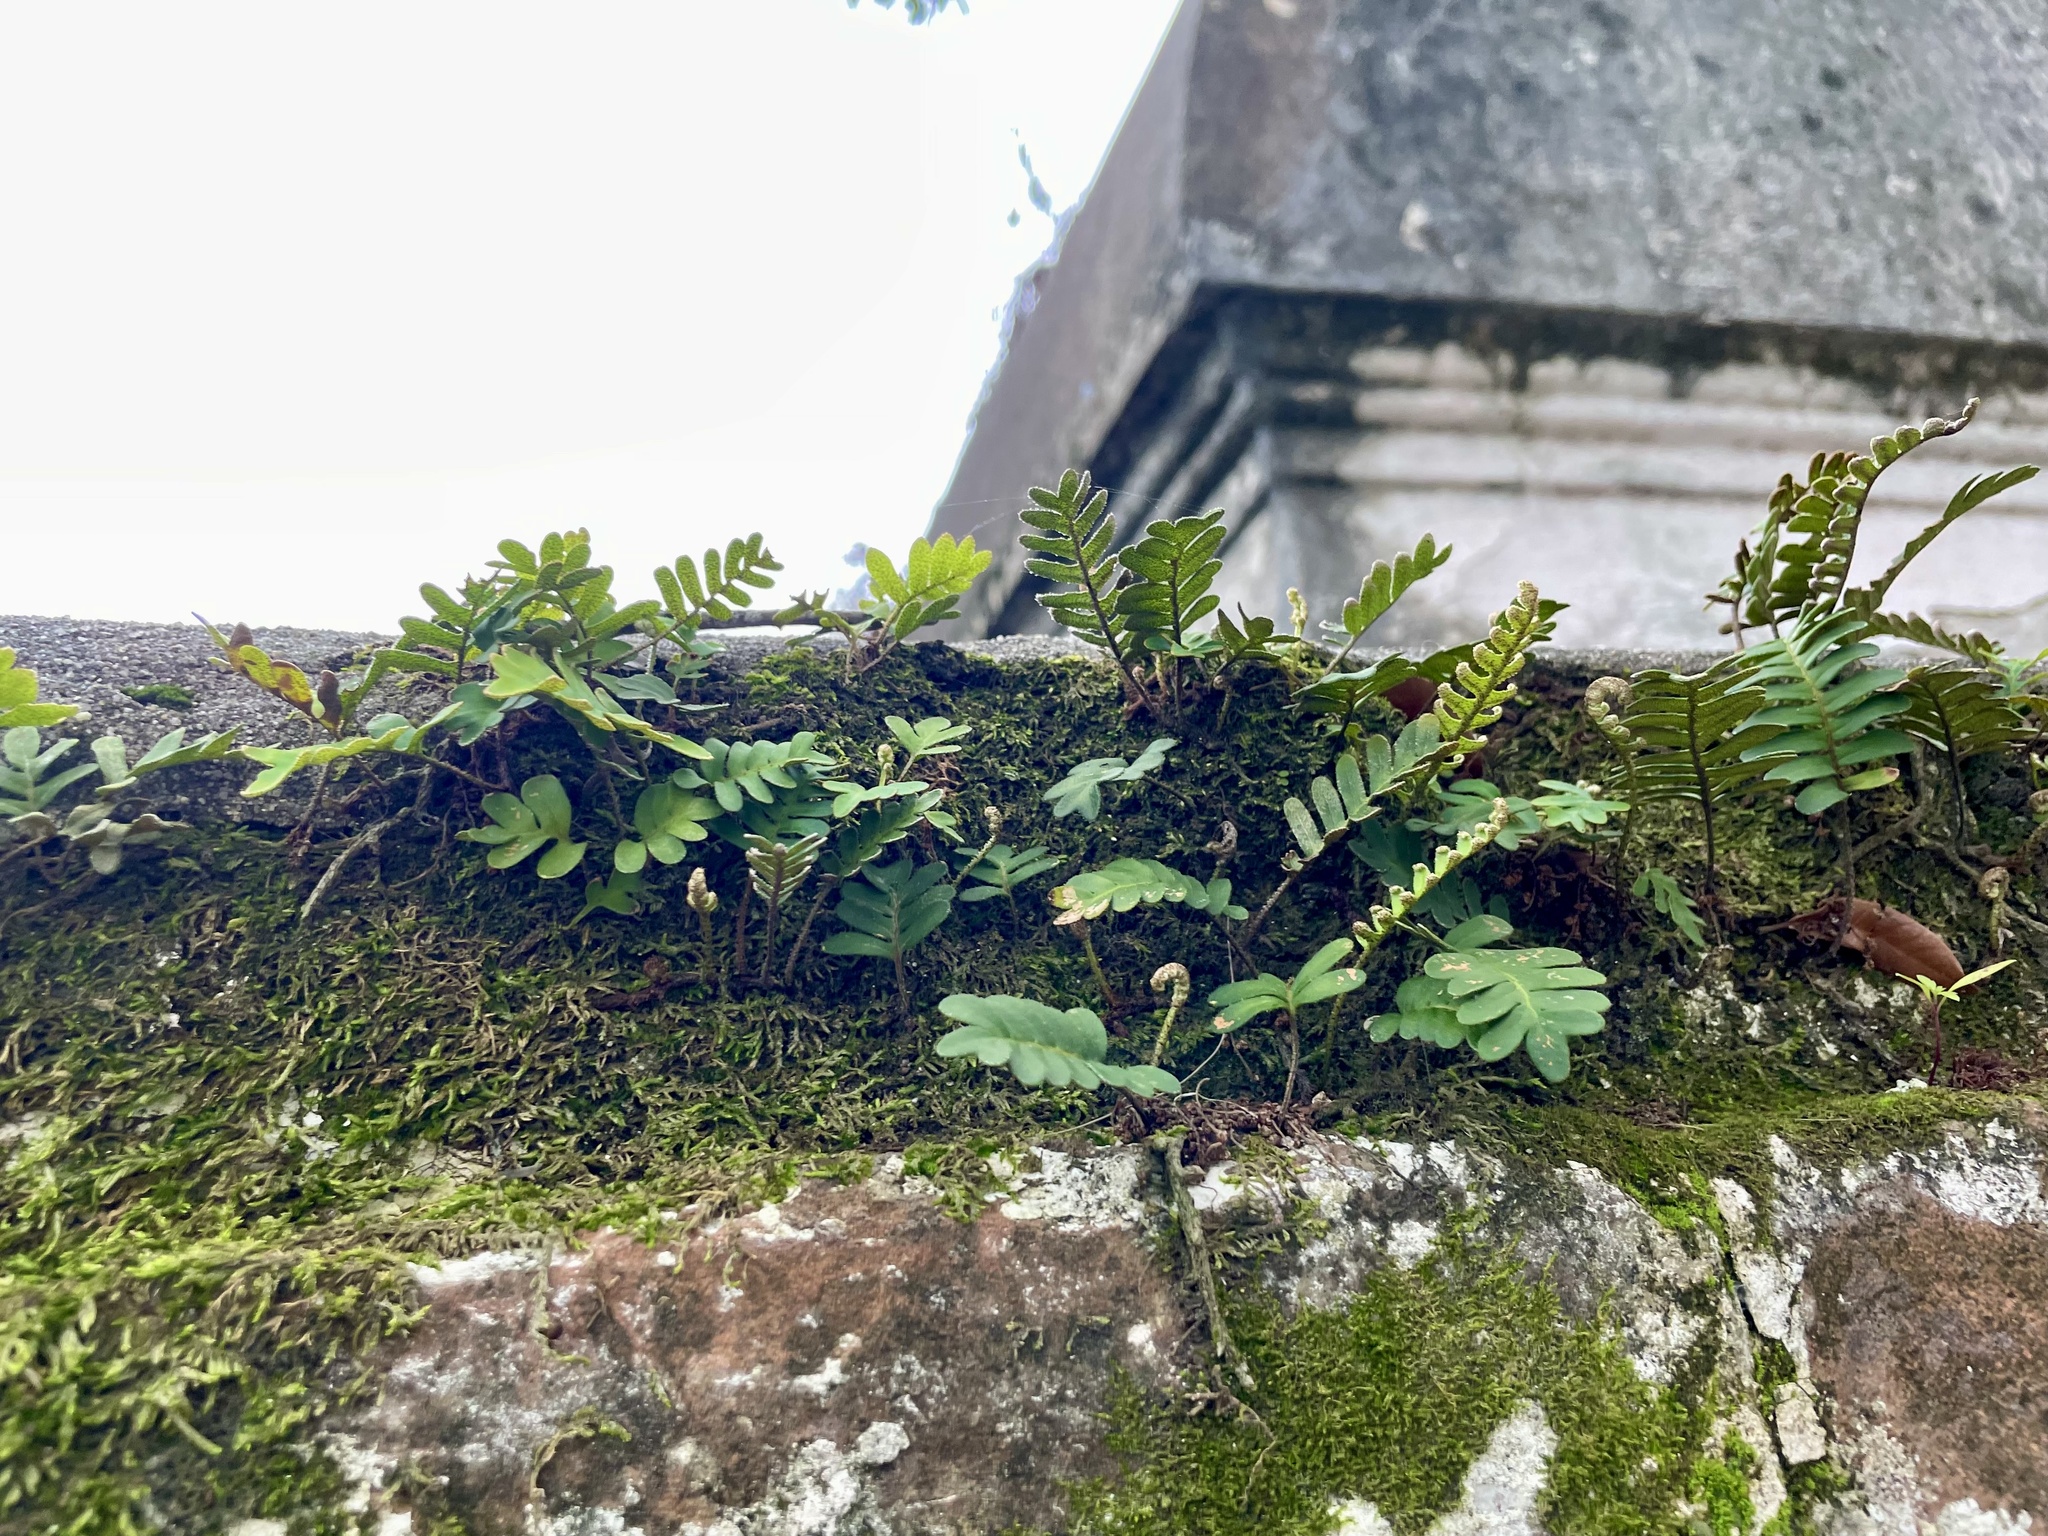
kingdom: Plantae
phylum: Tracheophyta
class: Polypodiopsida
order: Polypodiales
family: Polypodiaceae
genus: Pleopeltis
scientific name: Pleopeltis michauxiana
